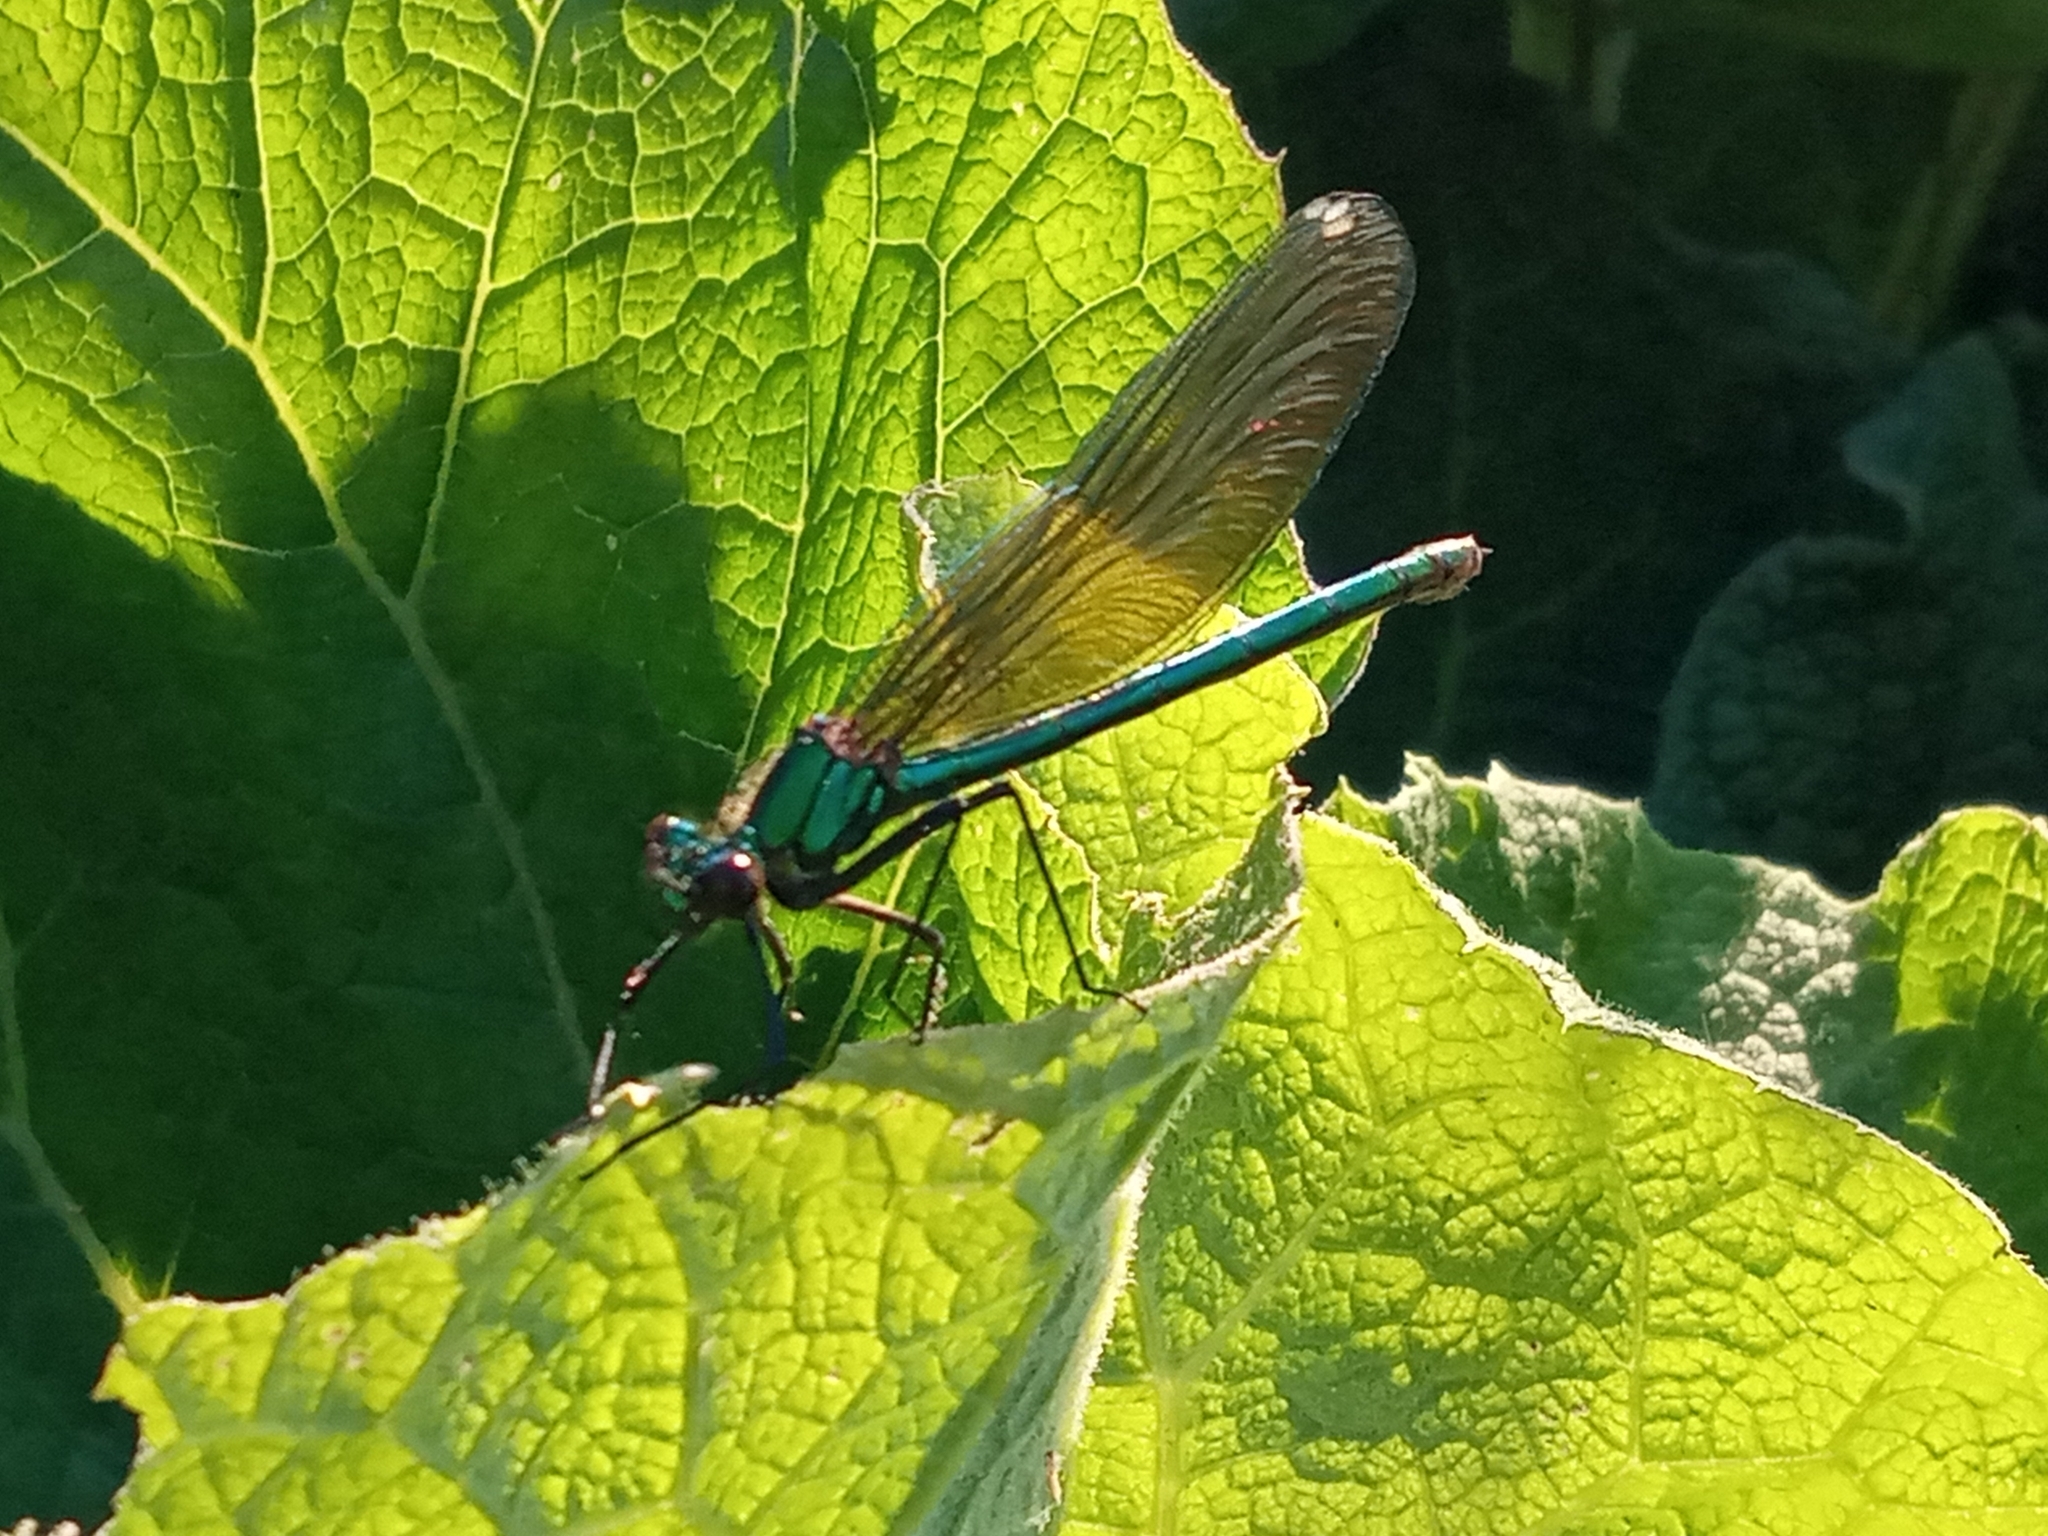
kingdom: Animalia
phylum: Arthropoda
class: Insecta
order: Odonata
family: Calopterygidae
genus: Calopteryx
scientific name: Calopteryx splendens
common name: Banded demoiselle
